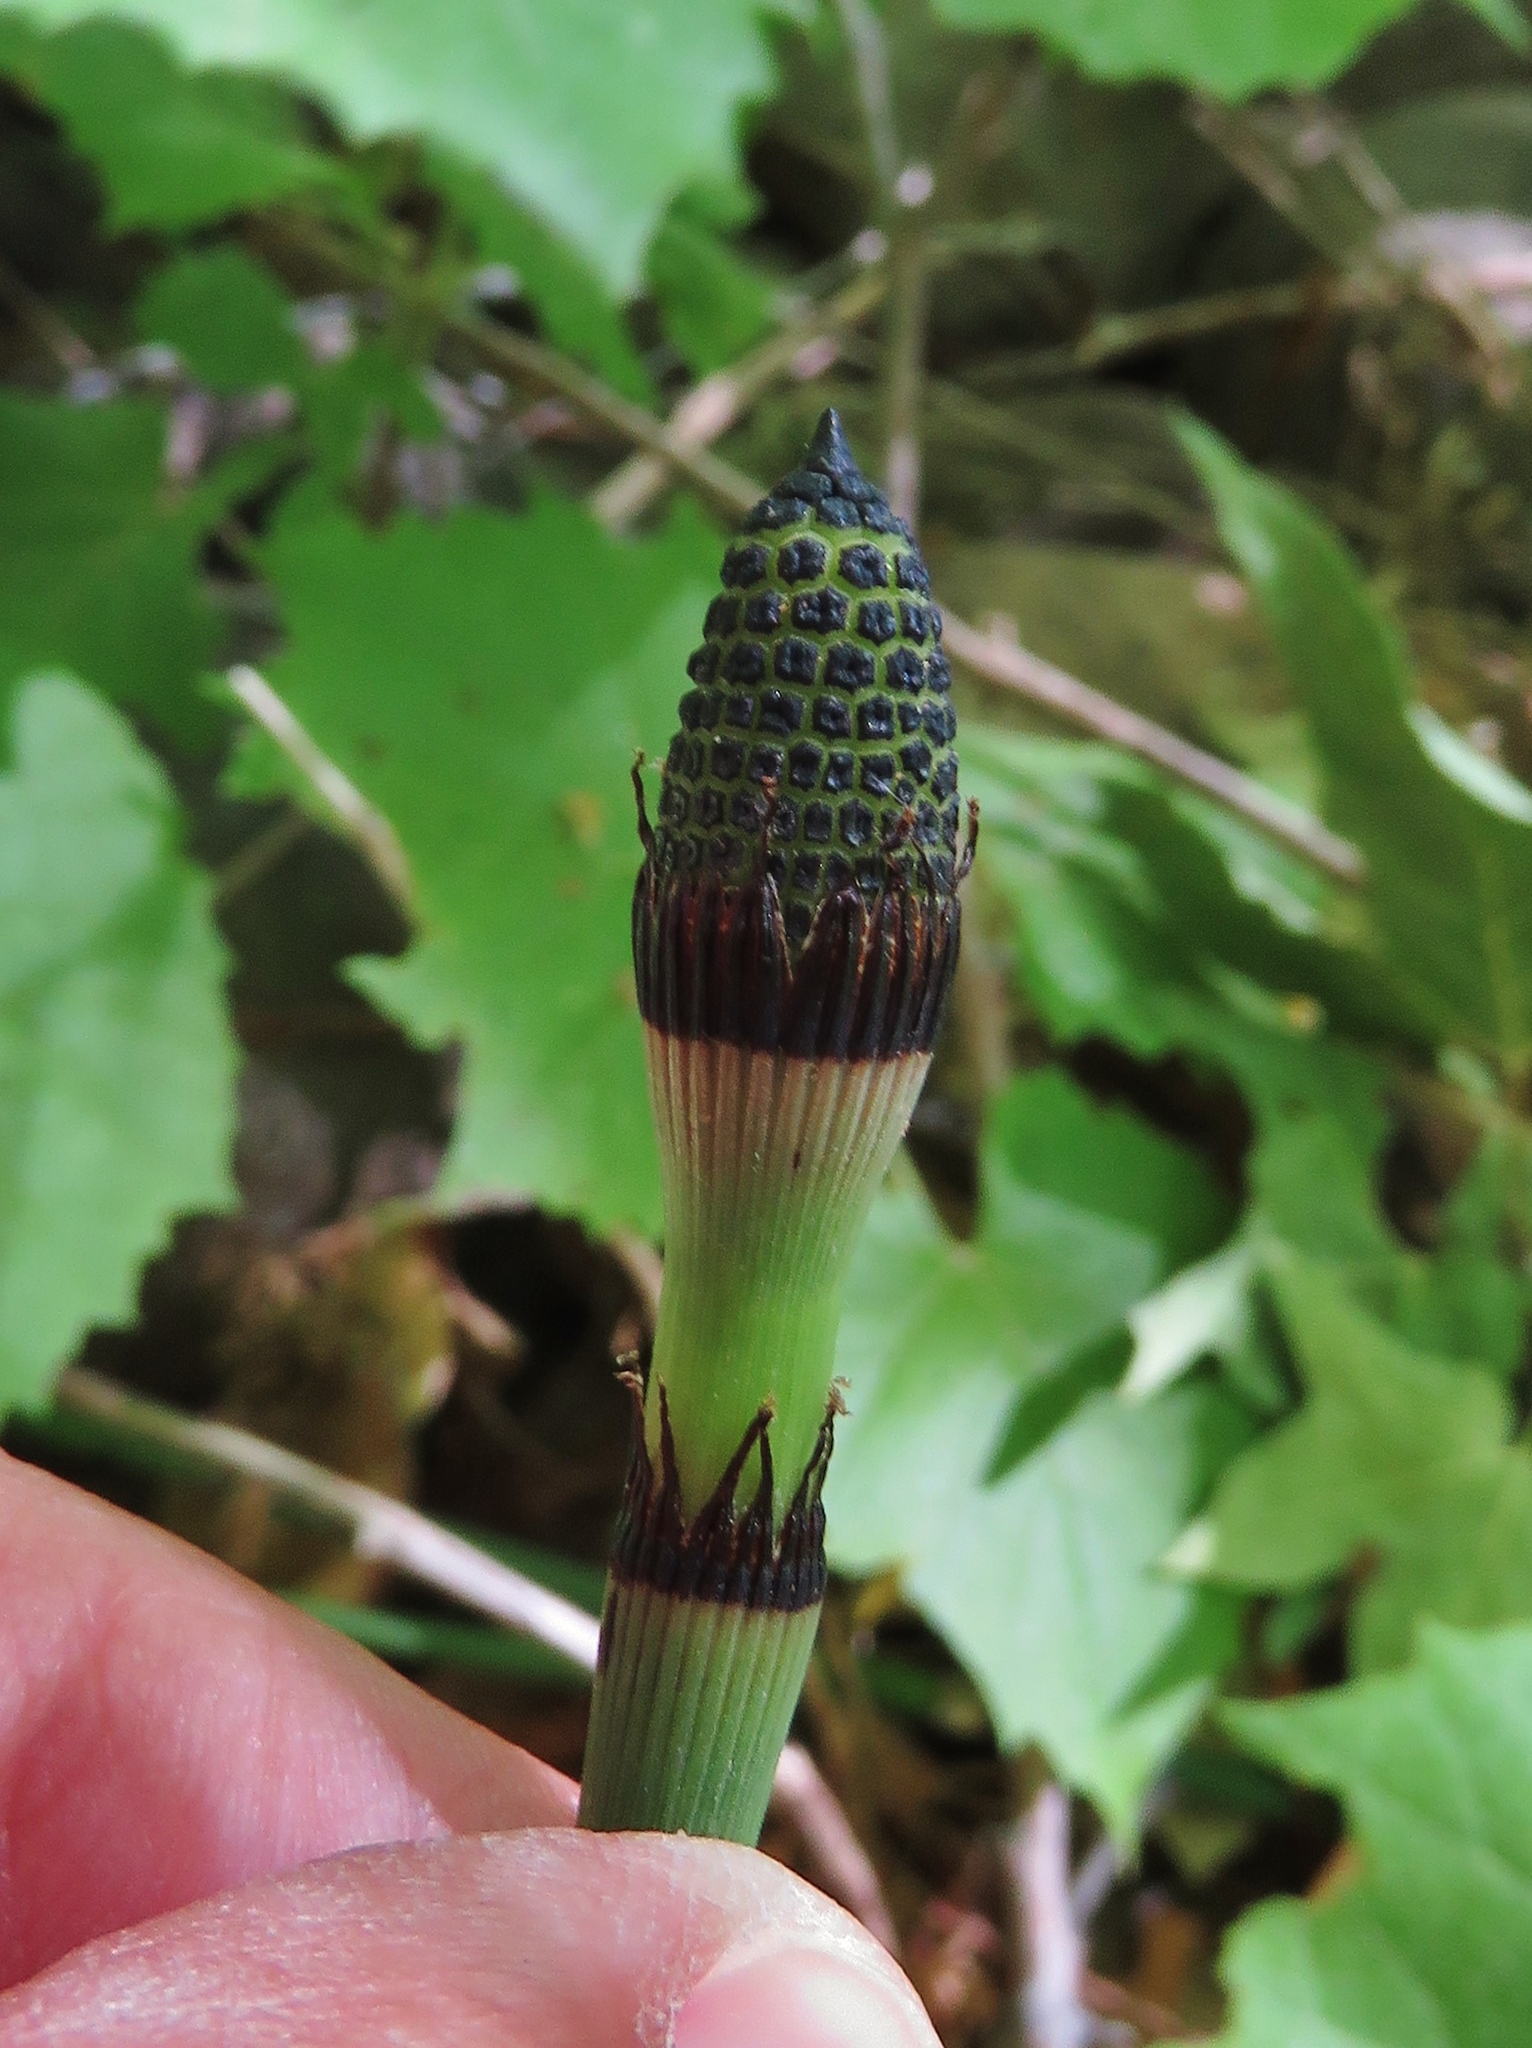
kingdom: Plantae
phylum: Tracheophyta
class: Polypodiopsida
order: Equisetales
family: Equisetaceae
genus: Equisetum
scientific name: Equisetum praealtum
